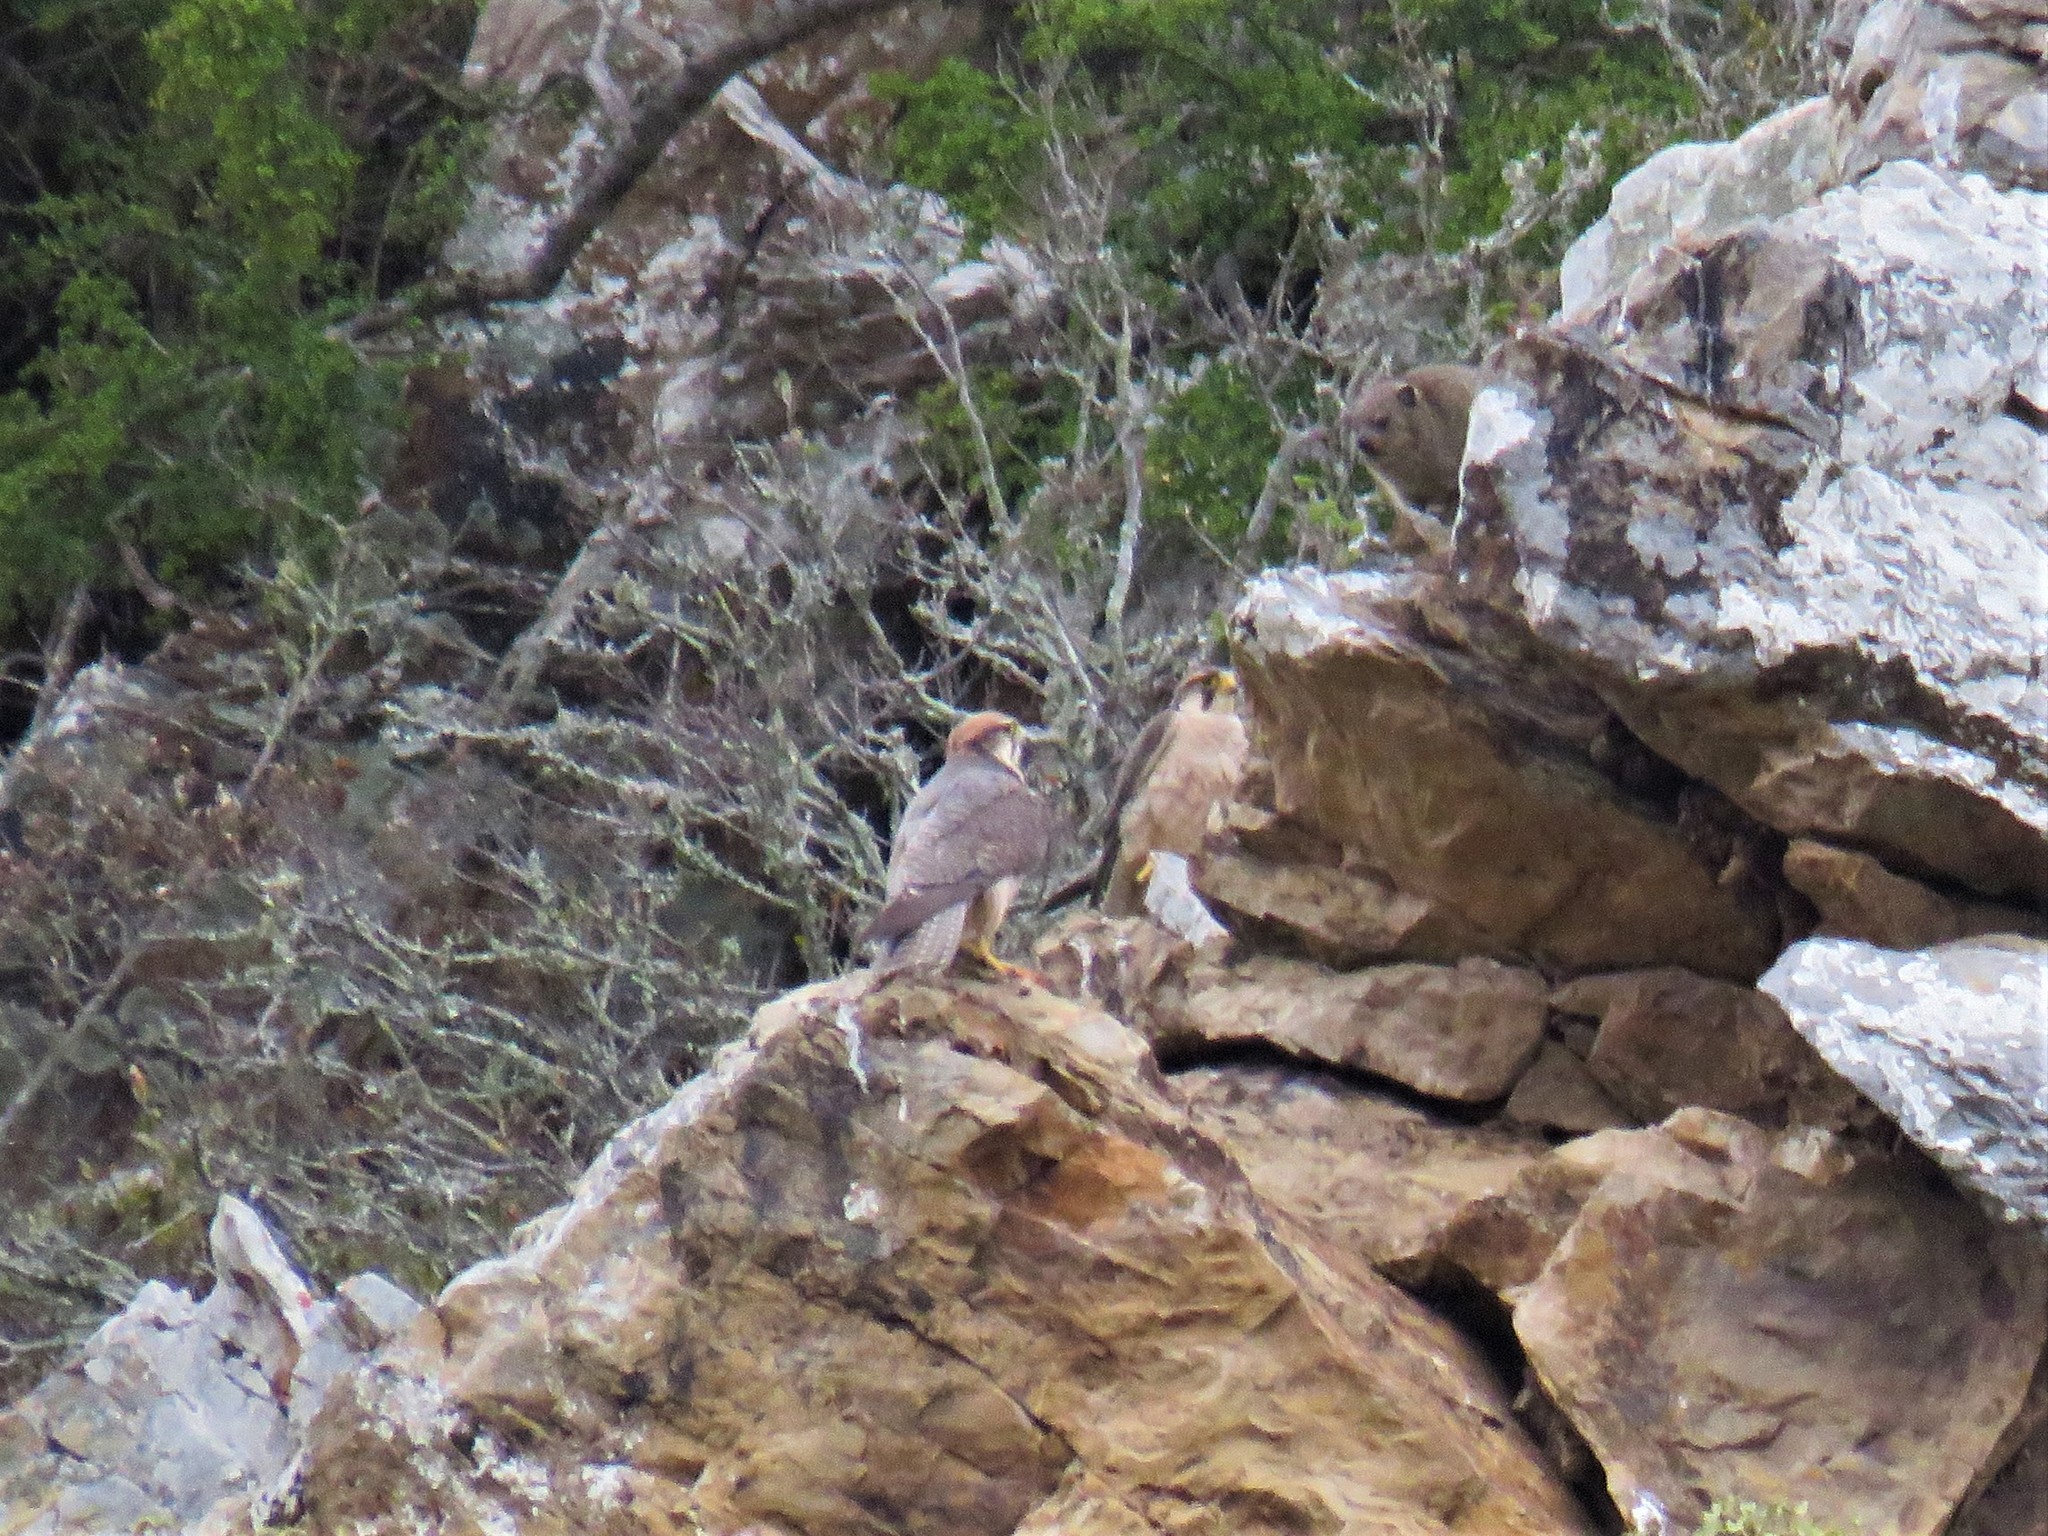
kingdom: Animalia
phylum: Chordata
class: Aves
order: Falconiformes
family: Falconidae
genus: Falco
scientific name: Falco biarmicus
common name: Lanner falcon
